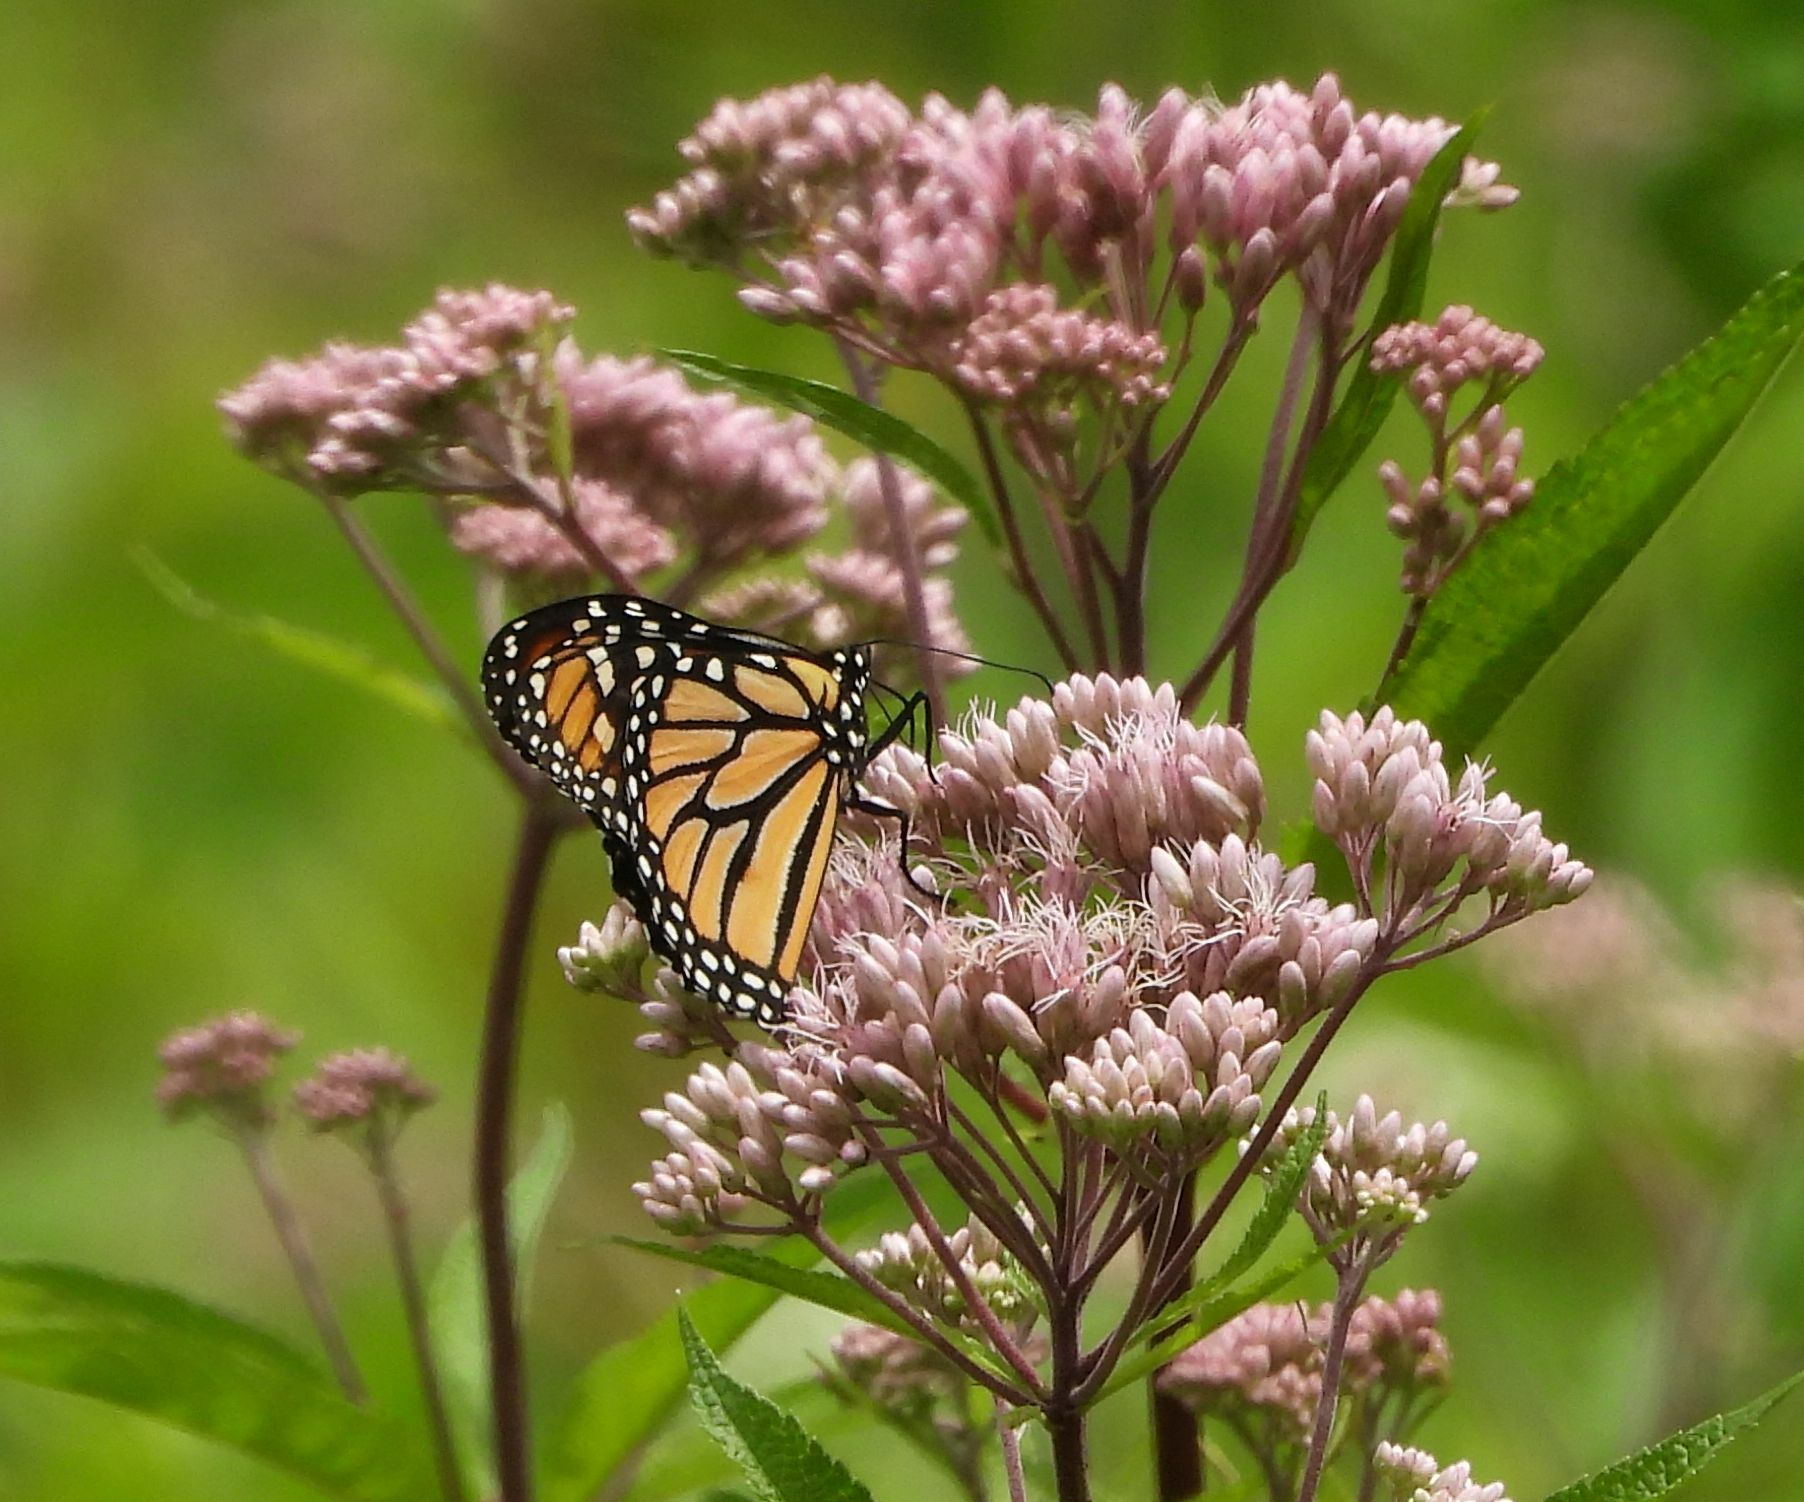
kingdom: Animalia
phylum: Arthropoda
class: Insecta
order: Lepidoptera
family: Nymphalidae
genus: Danaus
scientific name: Danaus plexippus
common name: Monarch
